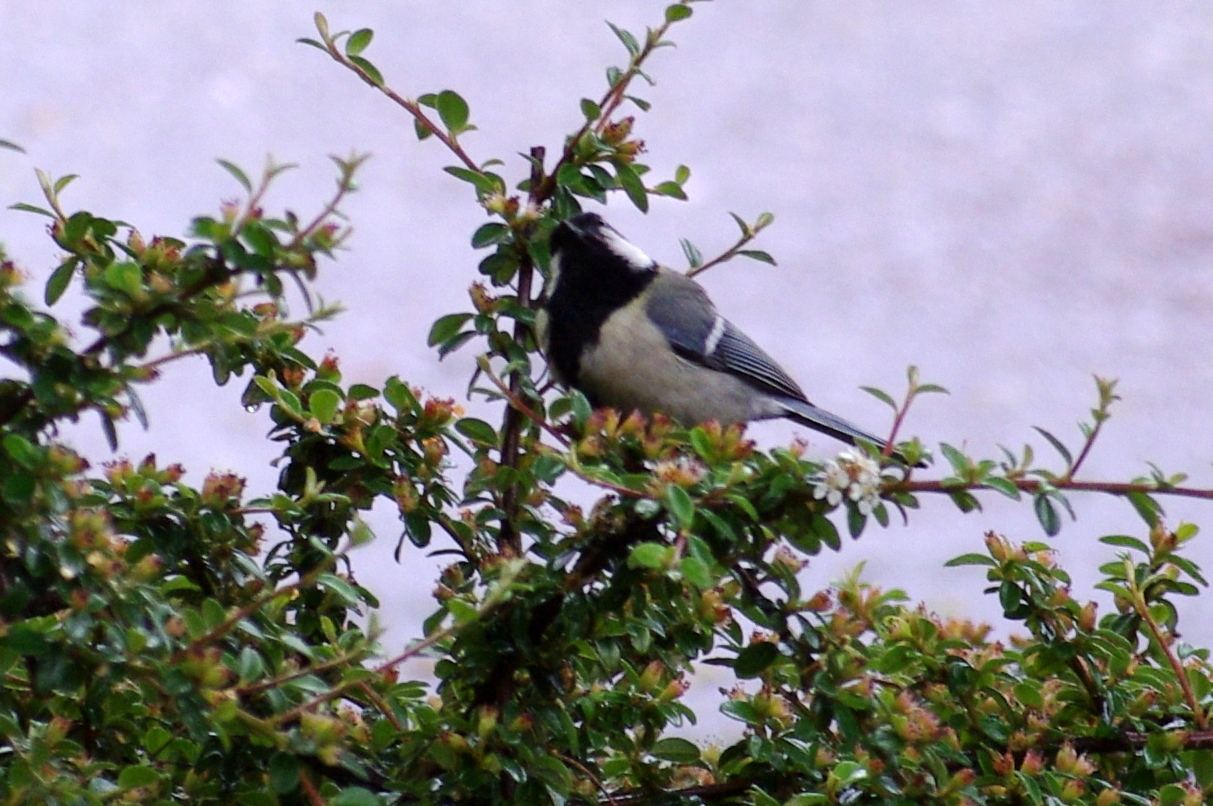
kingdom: Animalia
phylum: Chordata
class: Aves
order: Passeriformes
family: Paridae
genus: Parus
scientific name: Parus major
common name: Great tit
